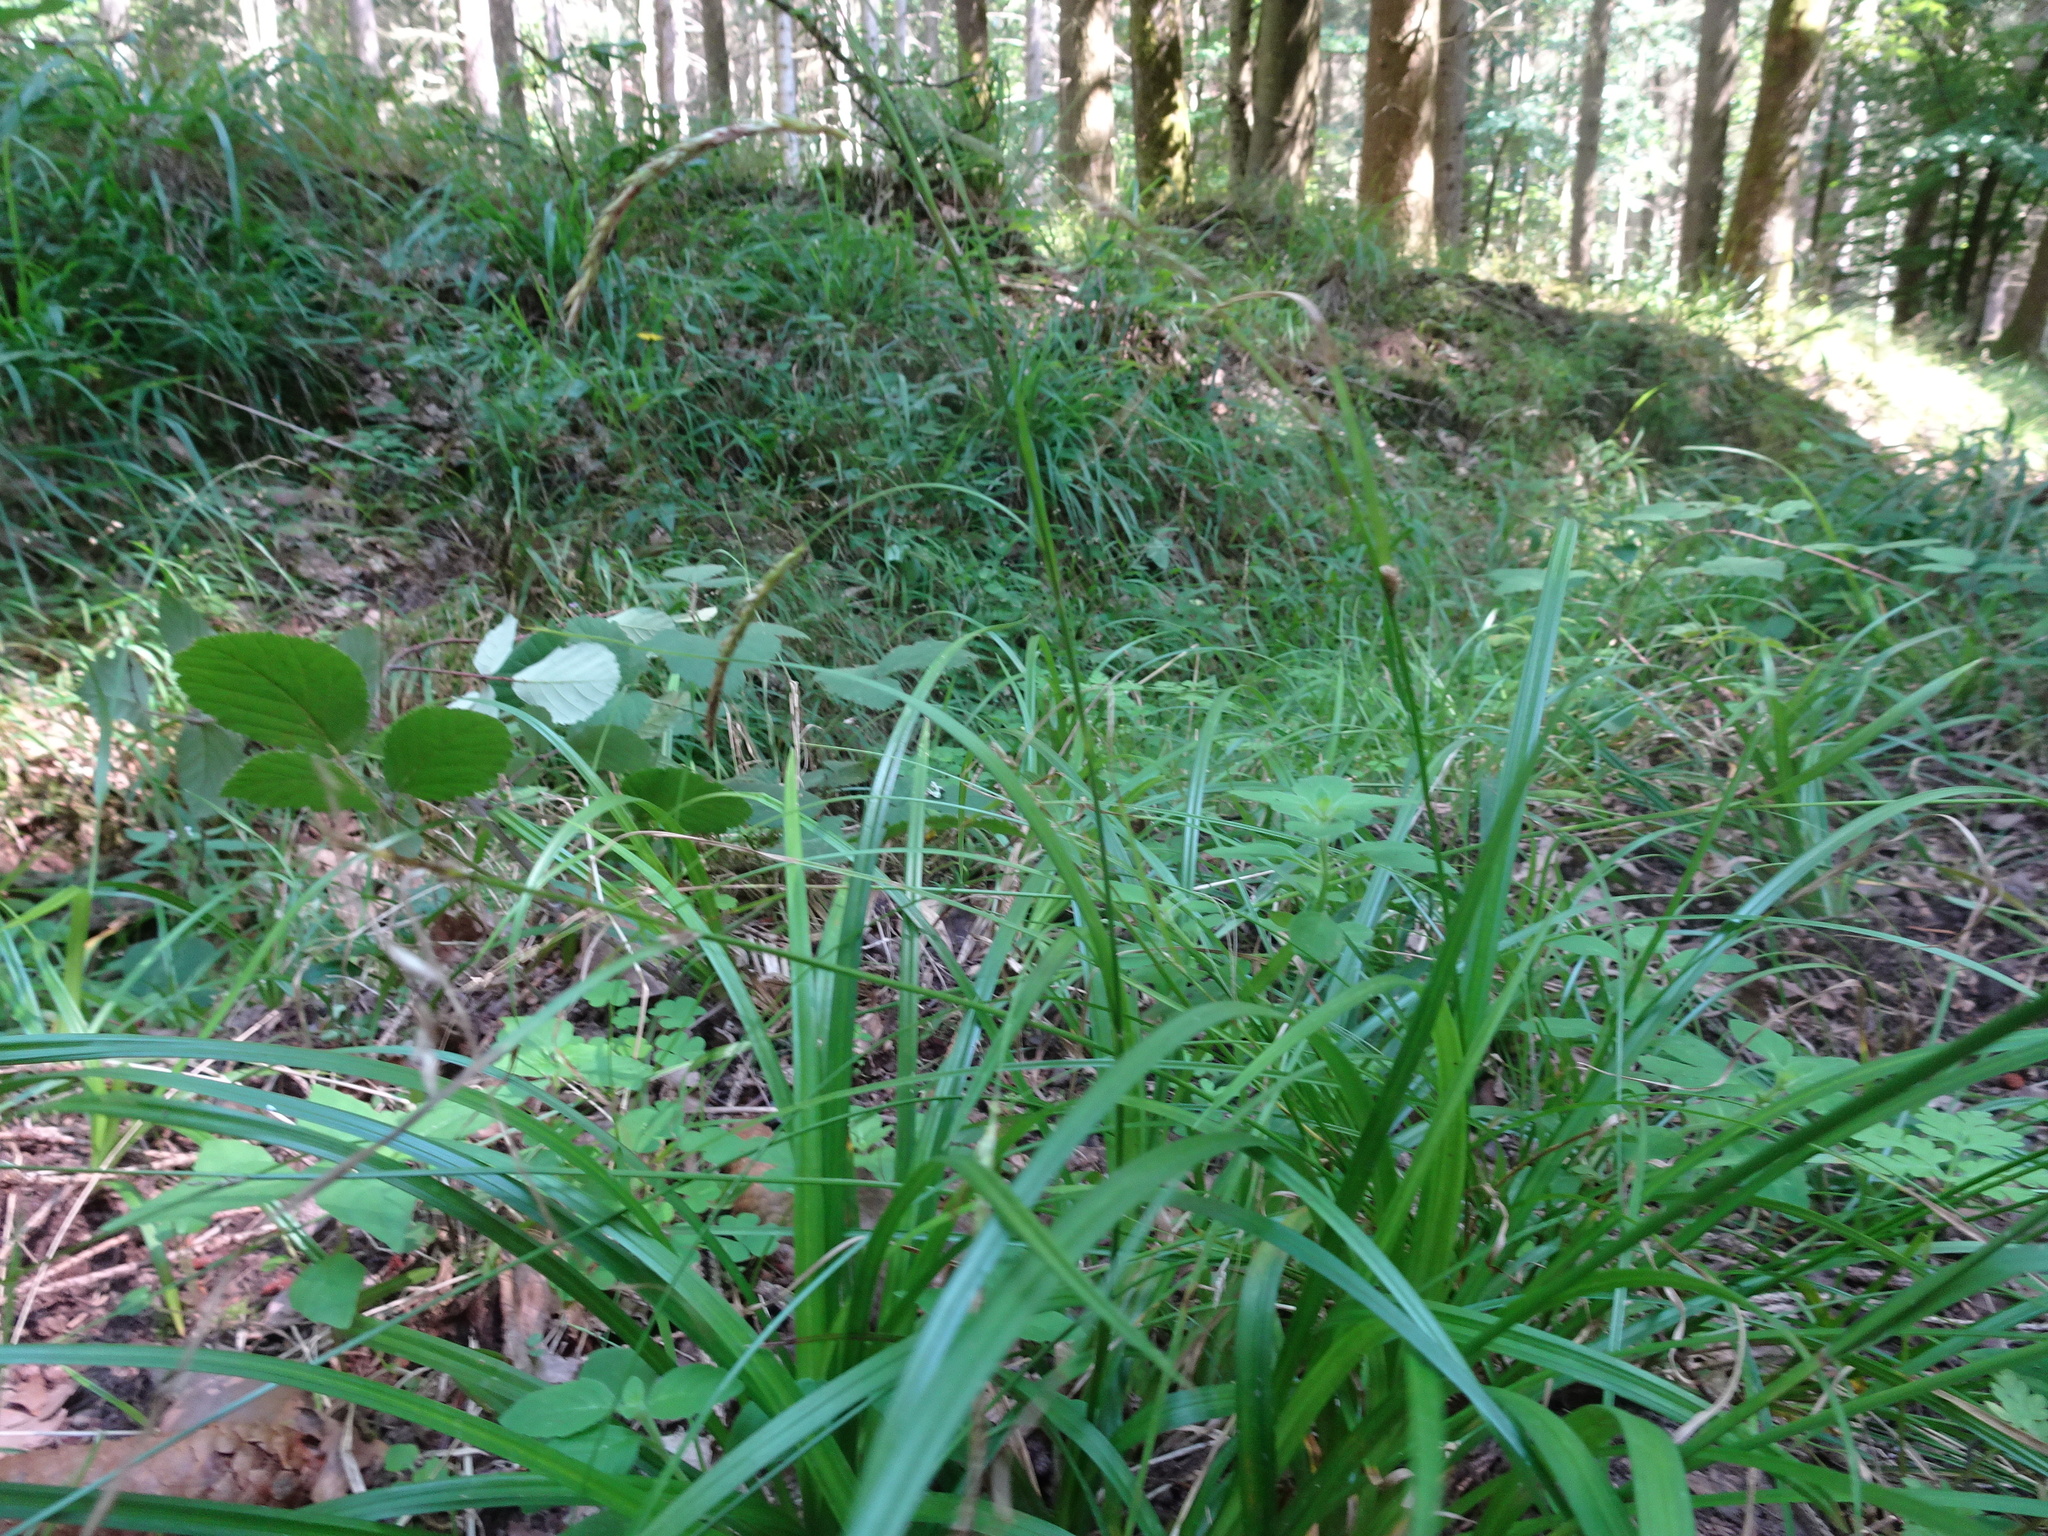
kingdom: Plantae
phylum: Tracheophyta
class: Liliopsida
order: Poales
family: Cyperaceae
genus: Carex
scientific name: Carex sylvatica
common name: Wood-sedge
